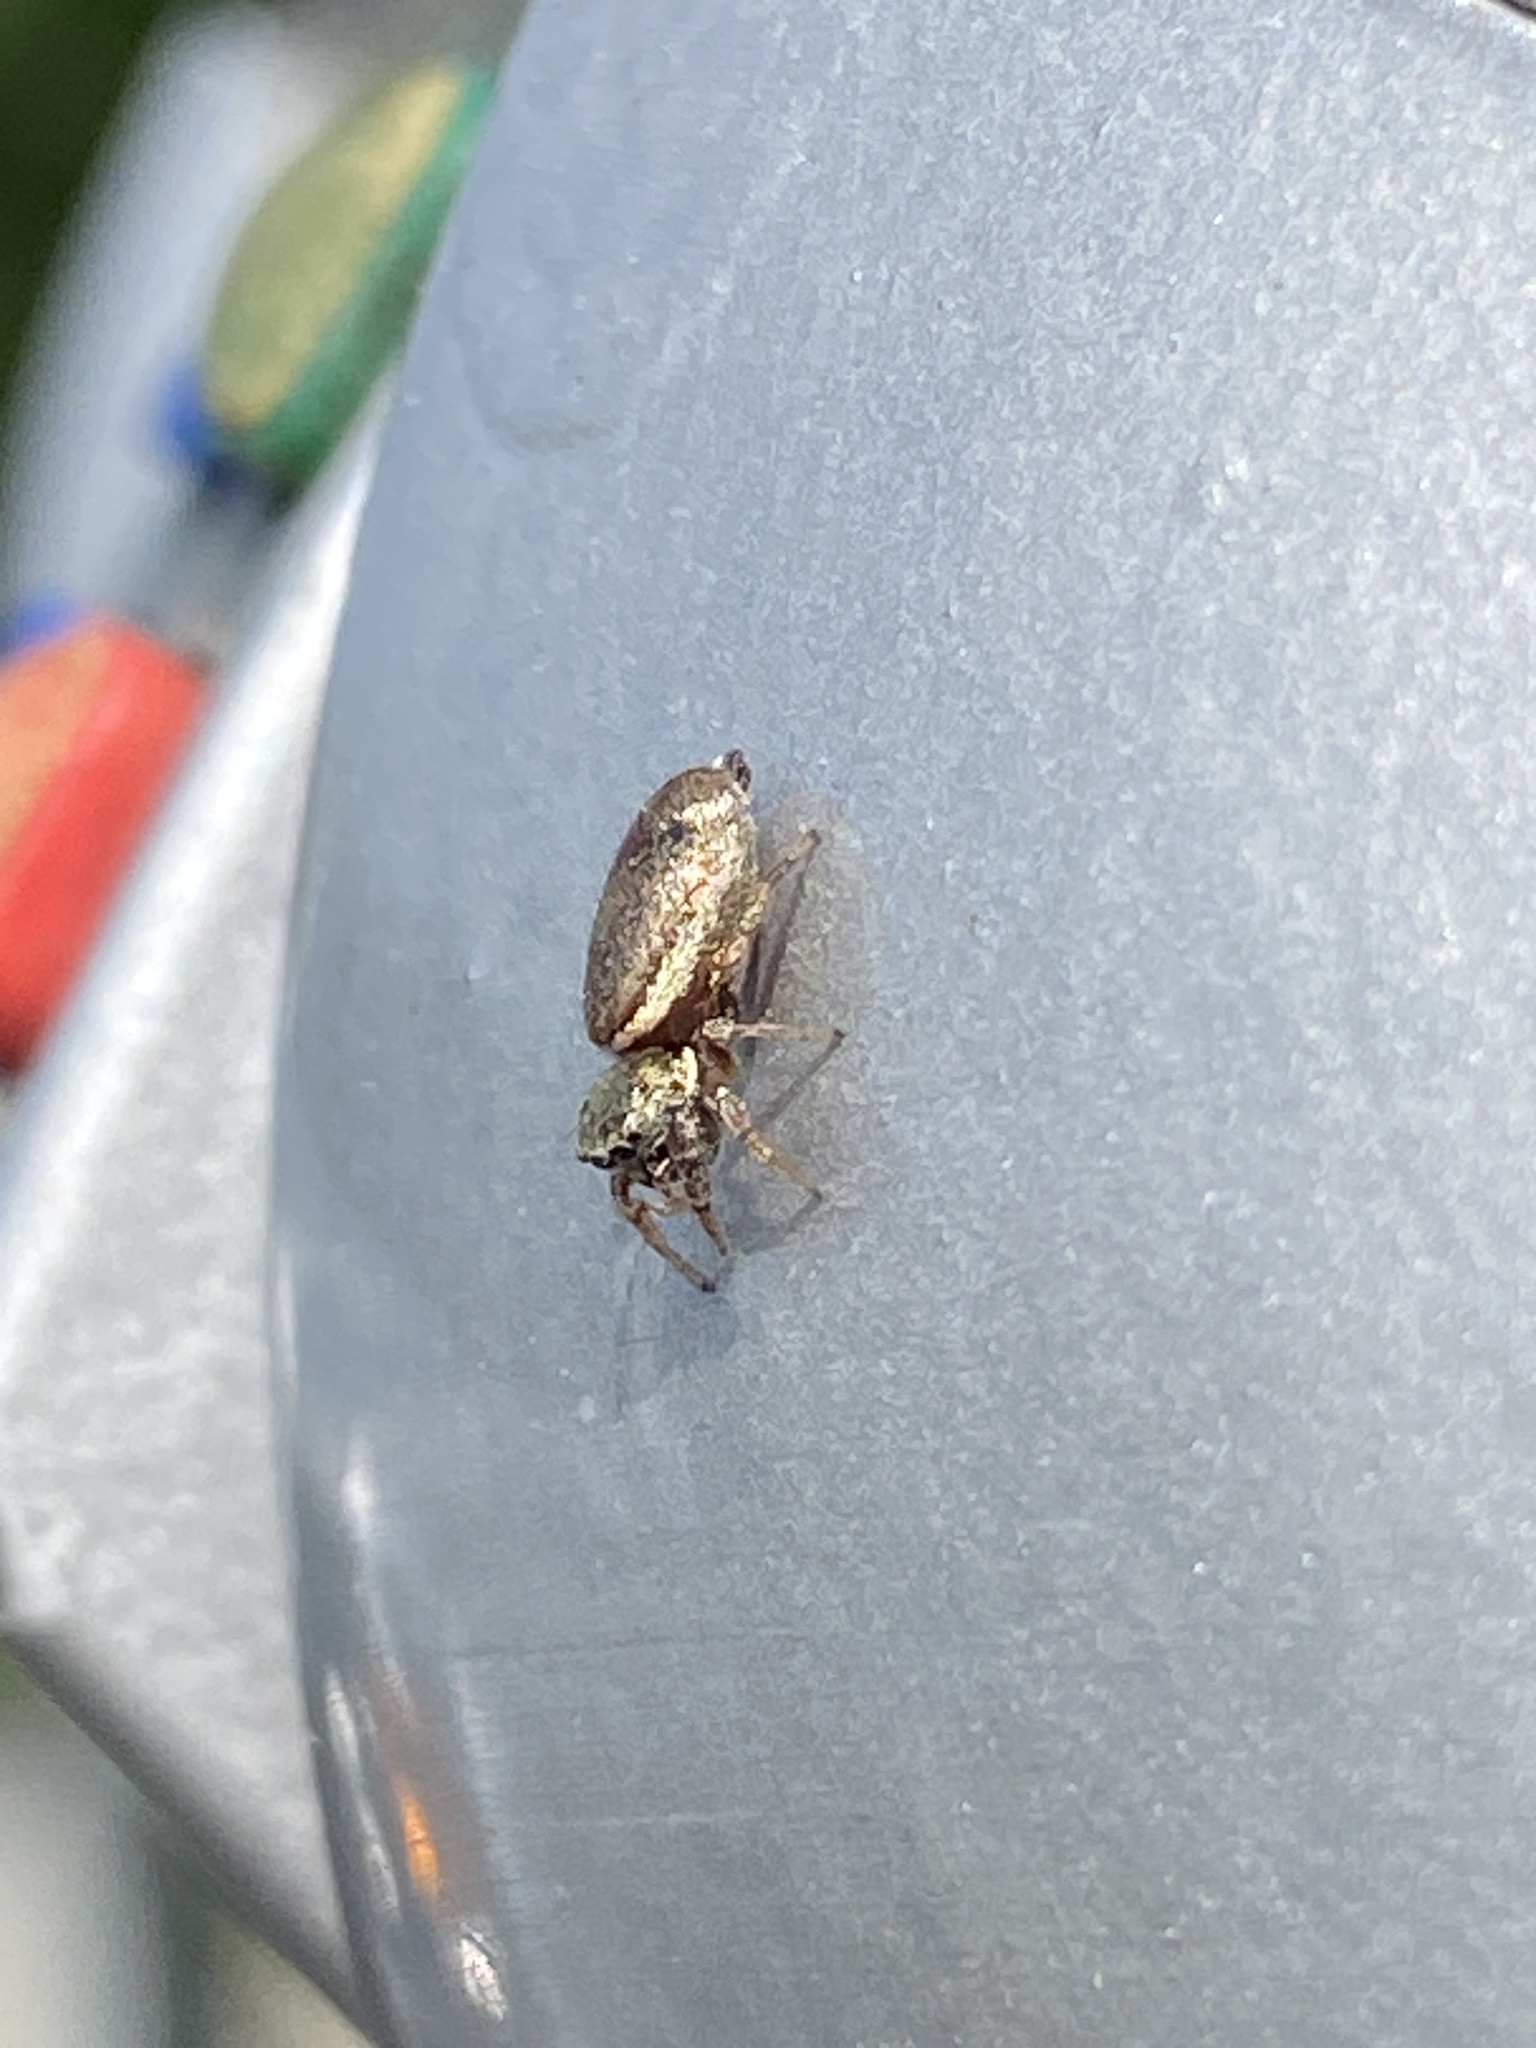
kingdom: Animalia
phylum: Arthropoda
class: Arachnida
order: Araneae
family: Salticidae
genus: Sassacus
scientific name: Sassacus vitis
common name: Jumping spiders
